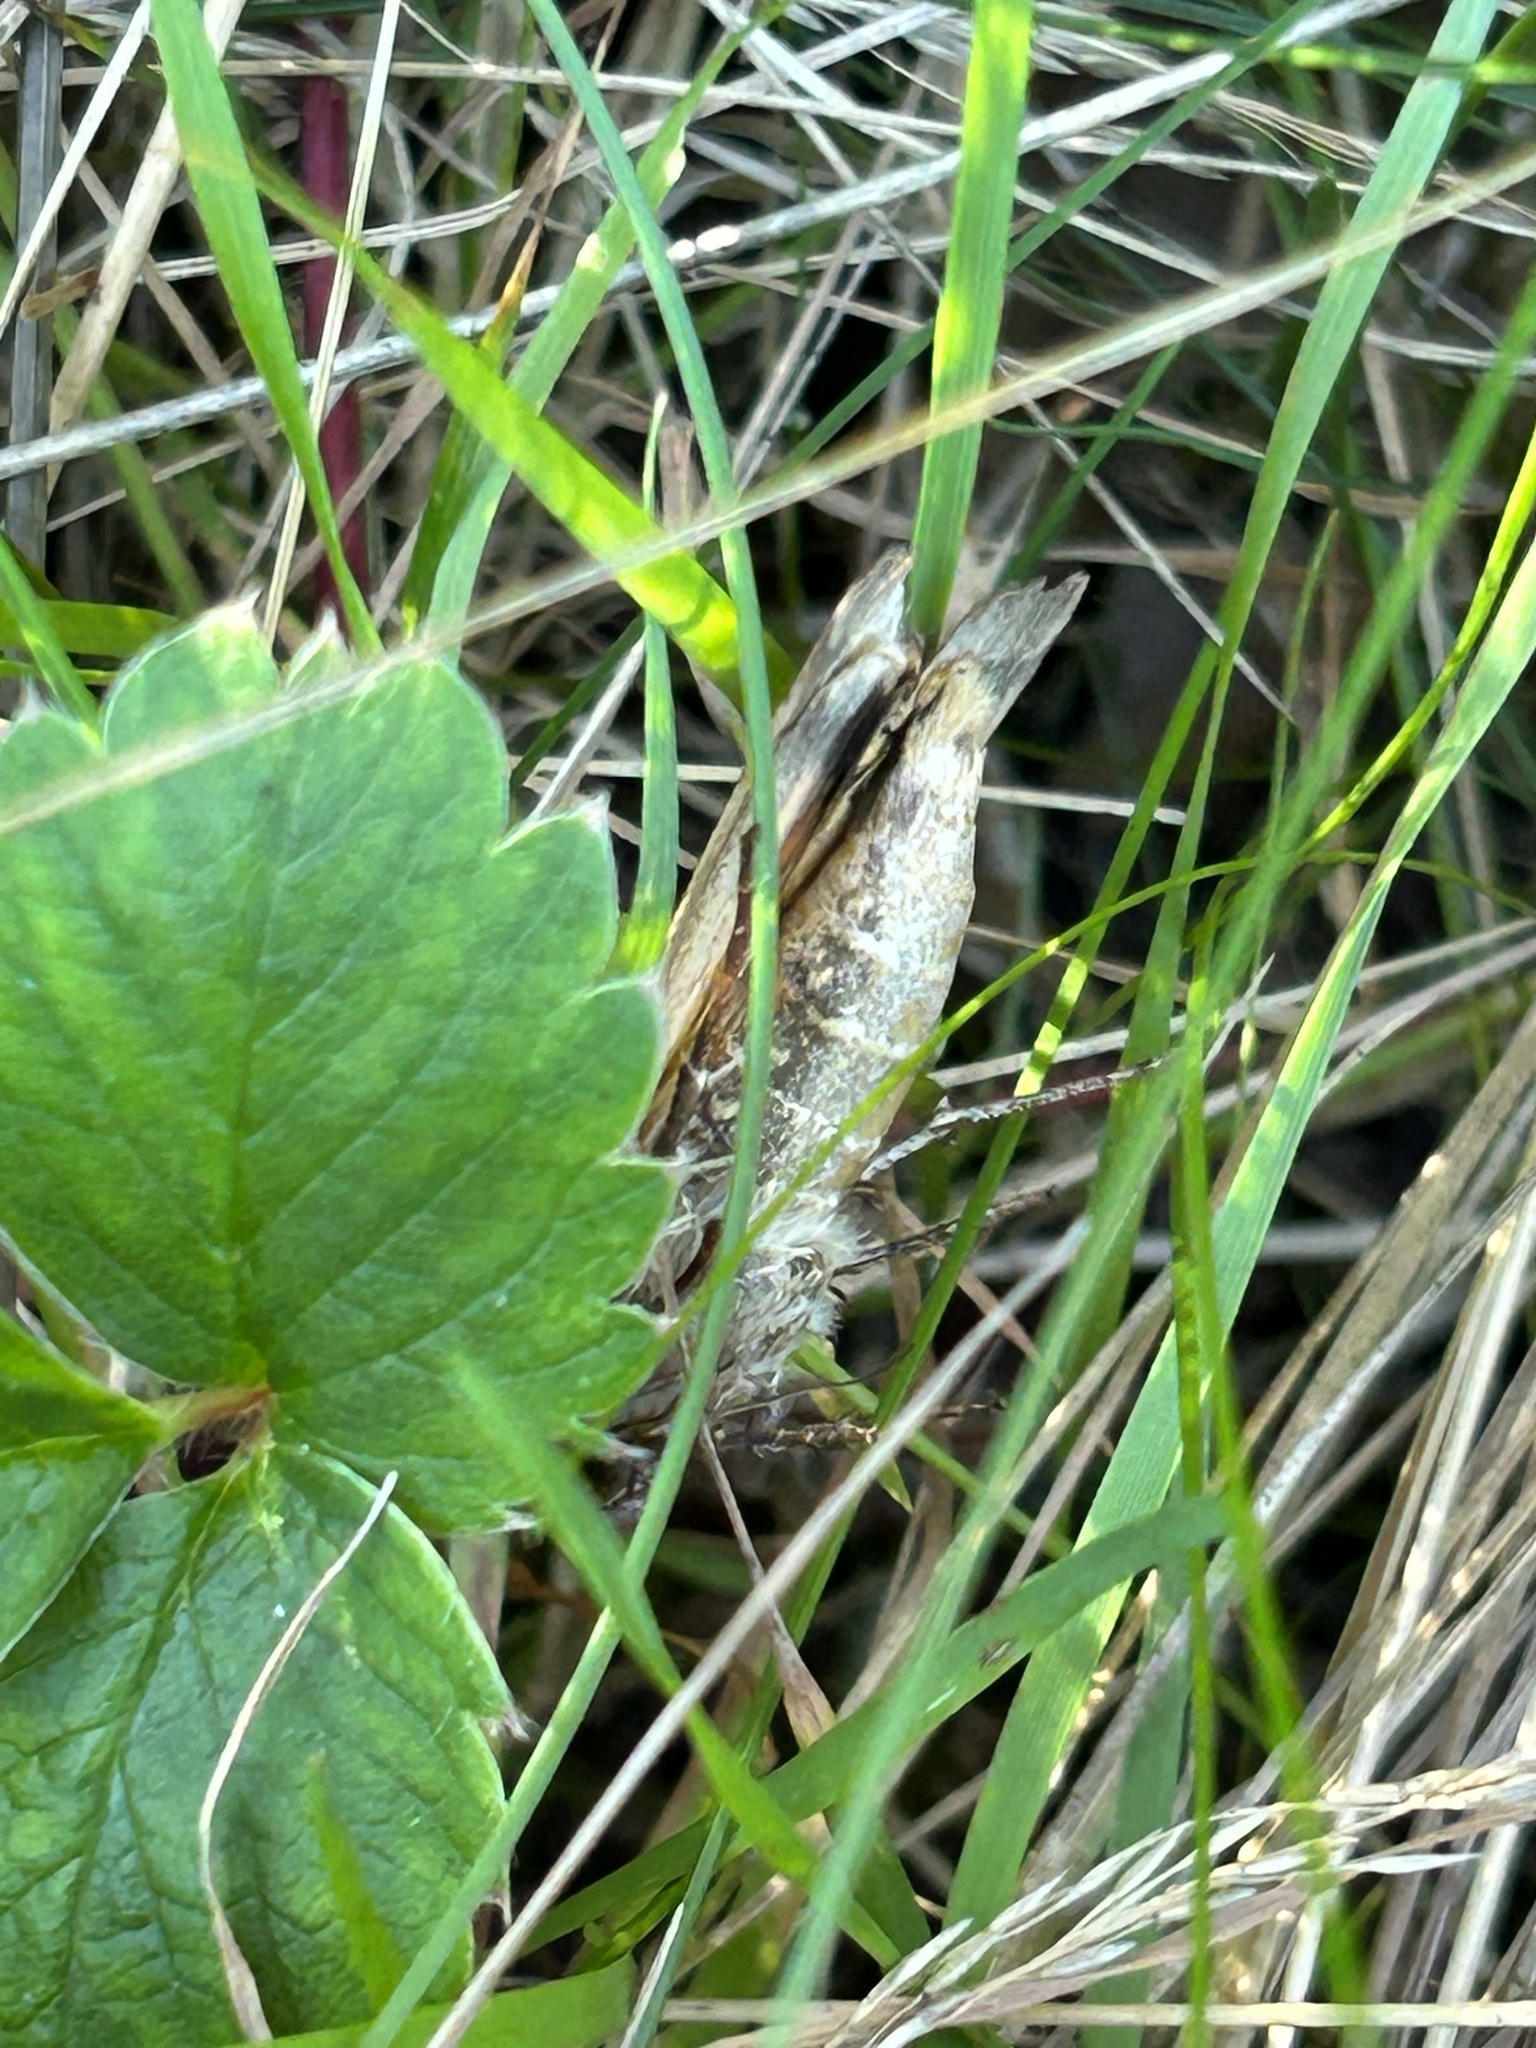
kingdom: Animalia
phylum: Arthropoda
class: Insecta
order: Lepidoptera
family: Noctuidae
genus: Noctua
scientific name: Noctua pronuba
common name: Large yellow underwing
